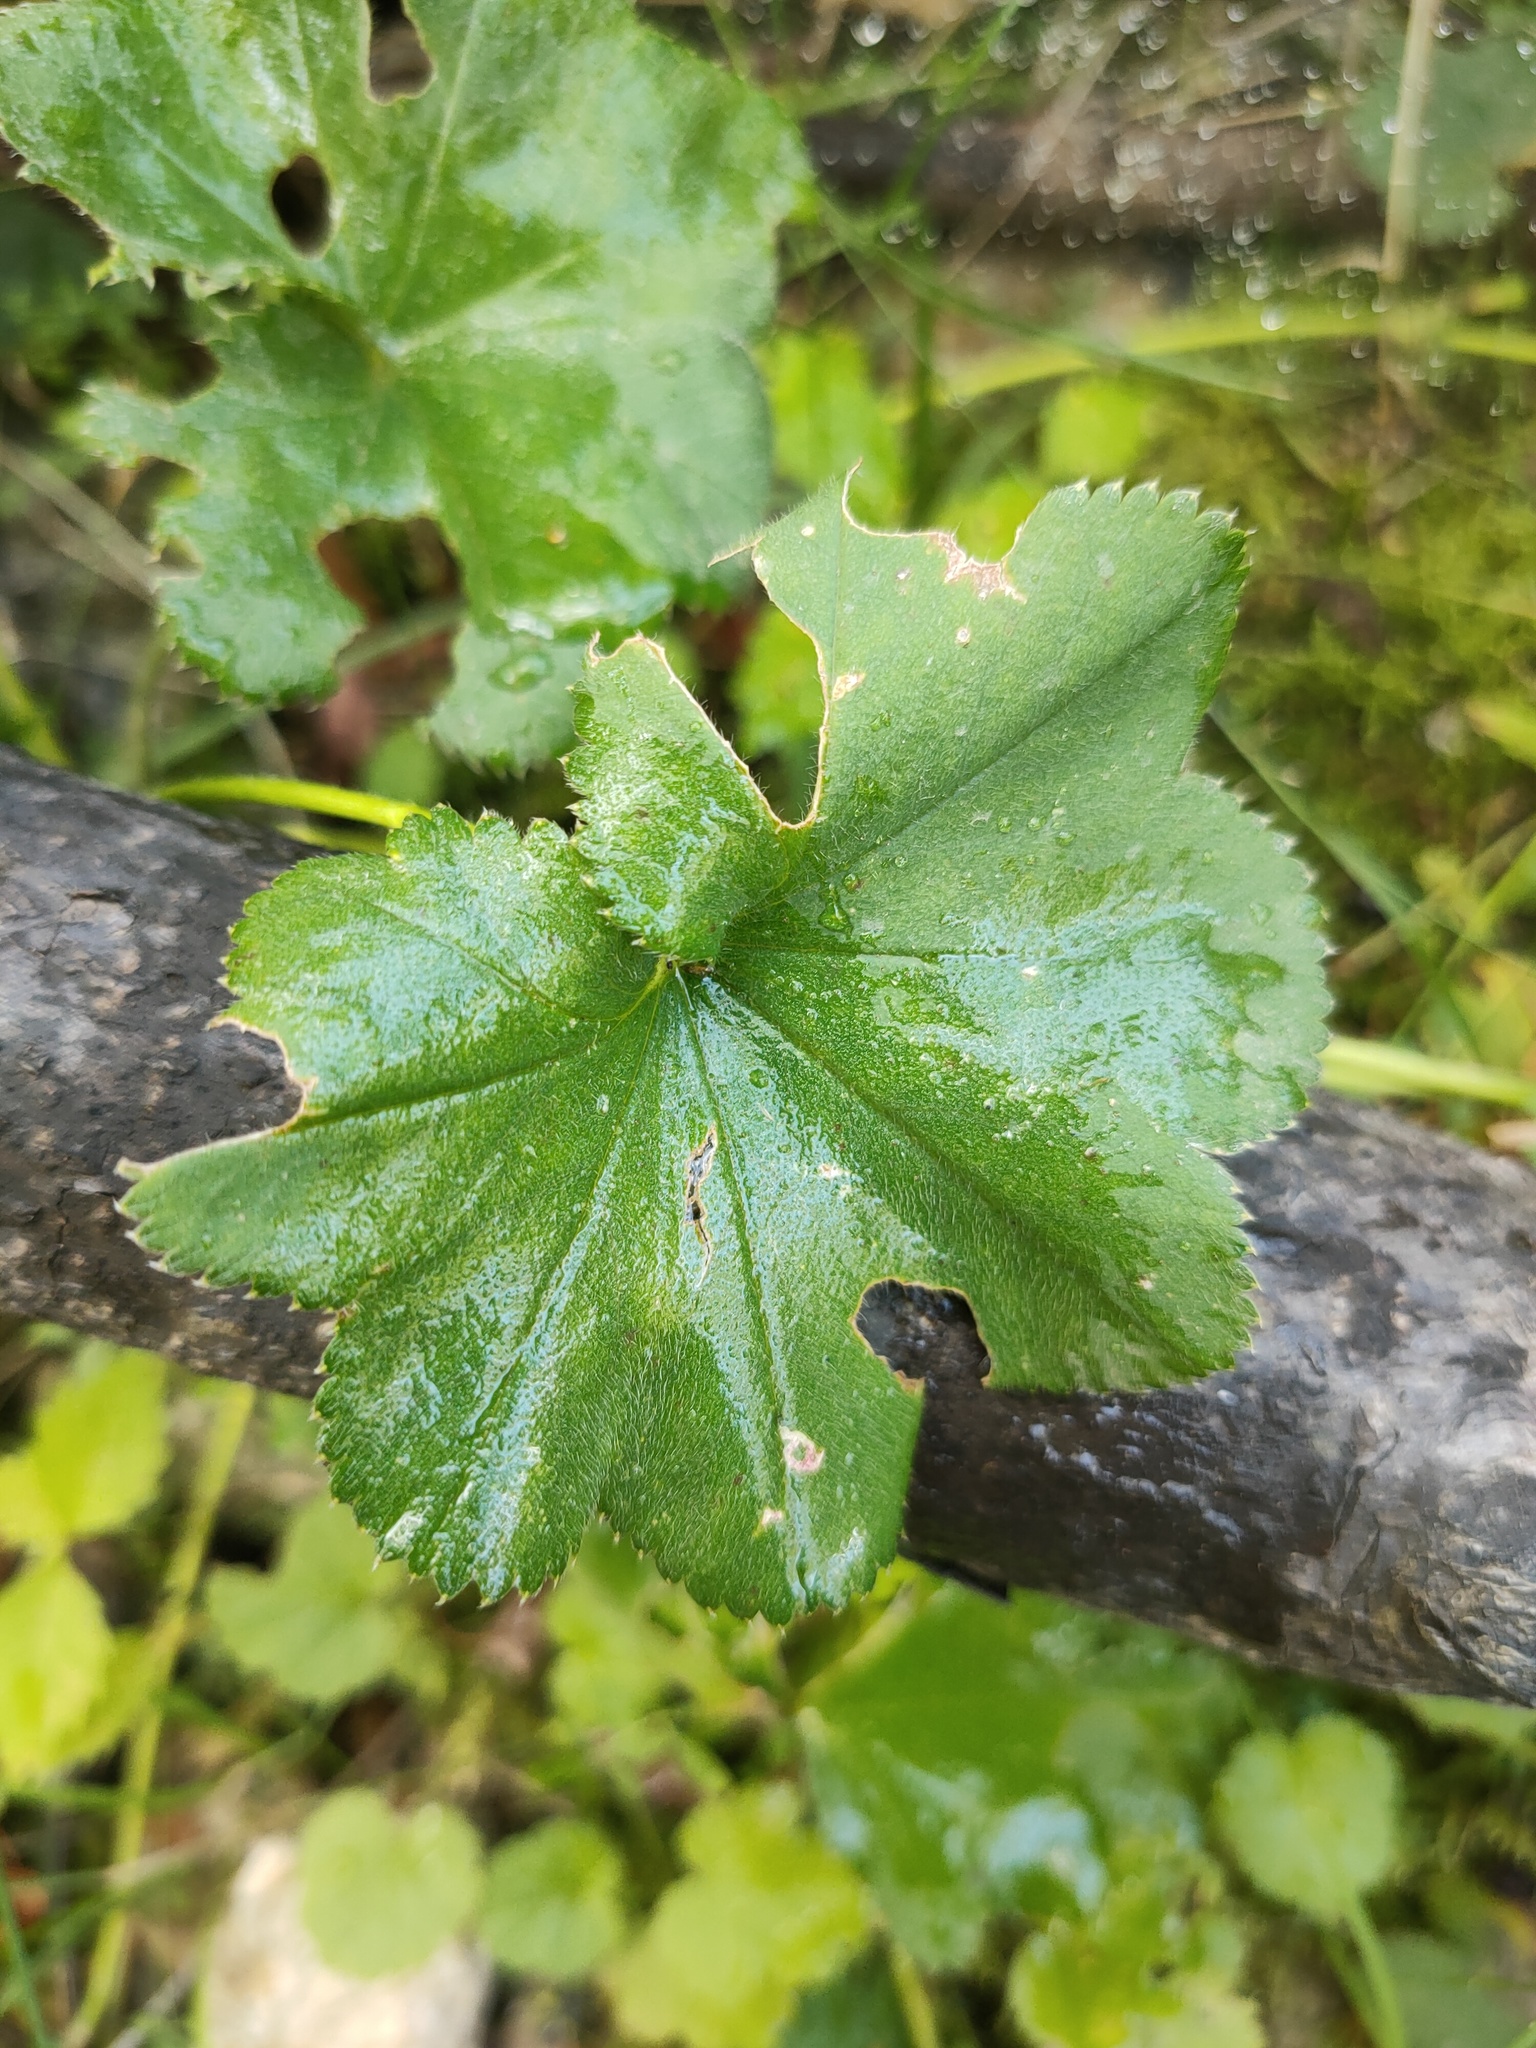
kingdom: Plantae
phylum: Tracheophyta
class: Magnoliopsida
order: Rosales
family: Rosaceae
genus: Alchemilla
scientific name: Alchemilla
